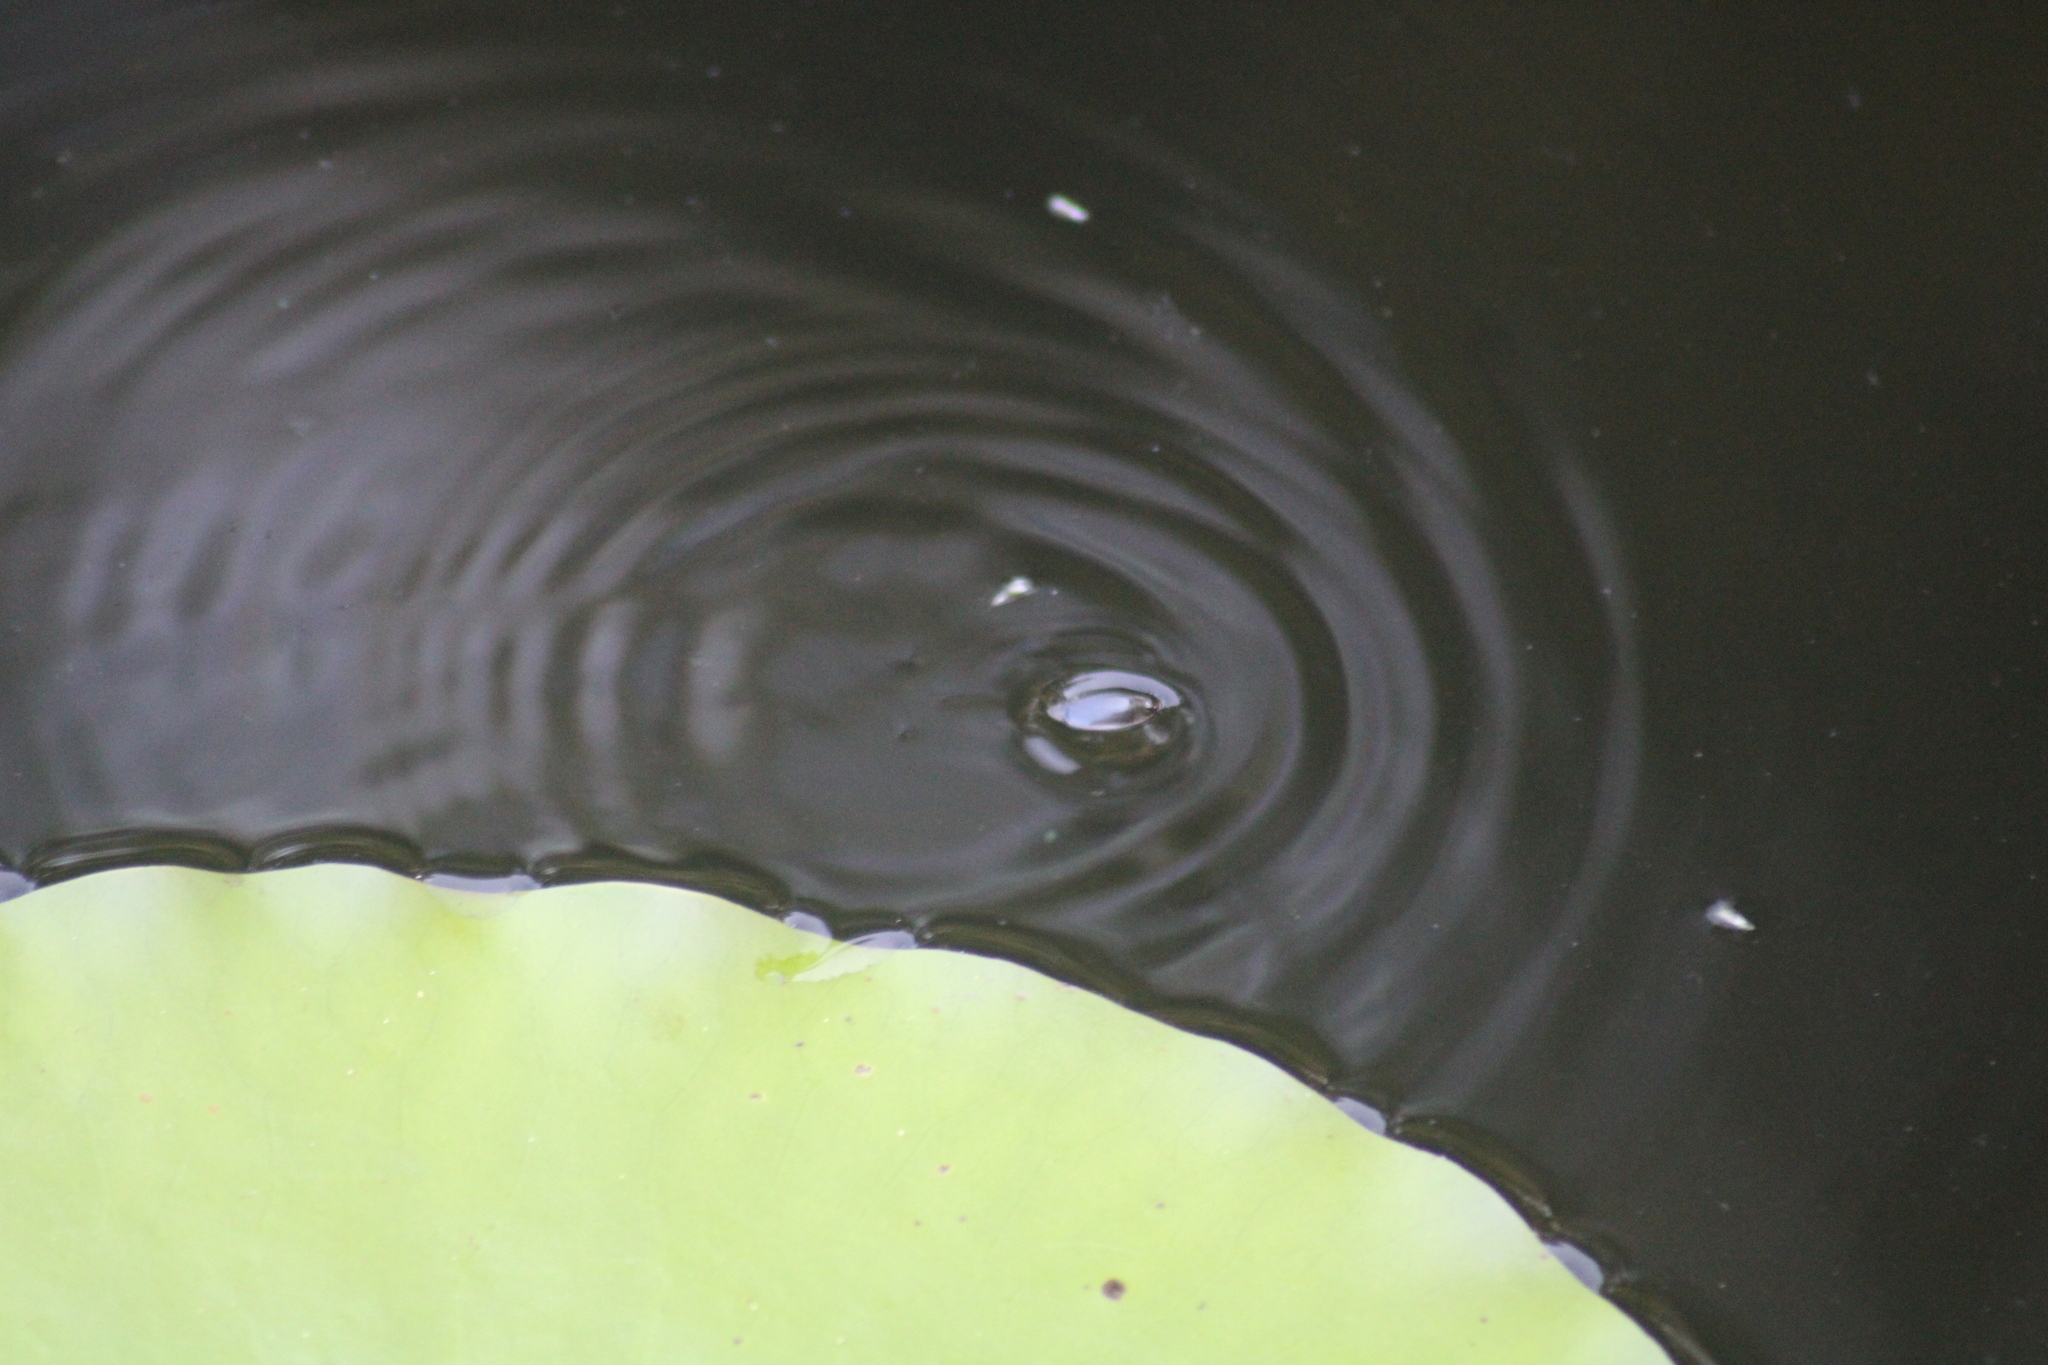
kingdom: Animalia
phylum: Arthropoda
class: Insecta
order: Coleoptera
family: Gyrinidae
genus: Dineutus
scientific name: Dineutus
